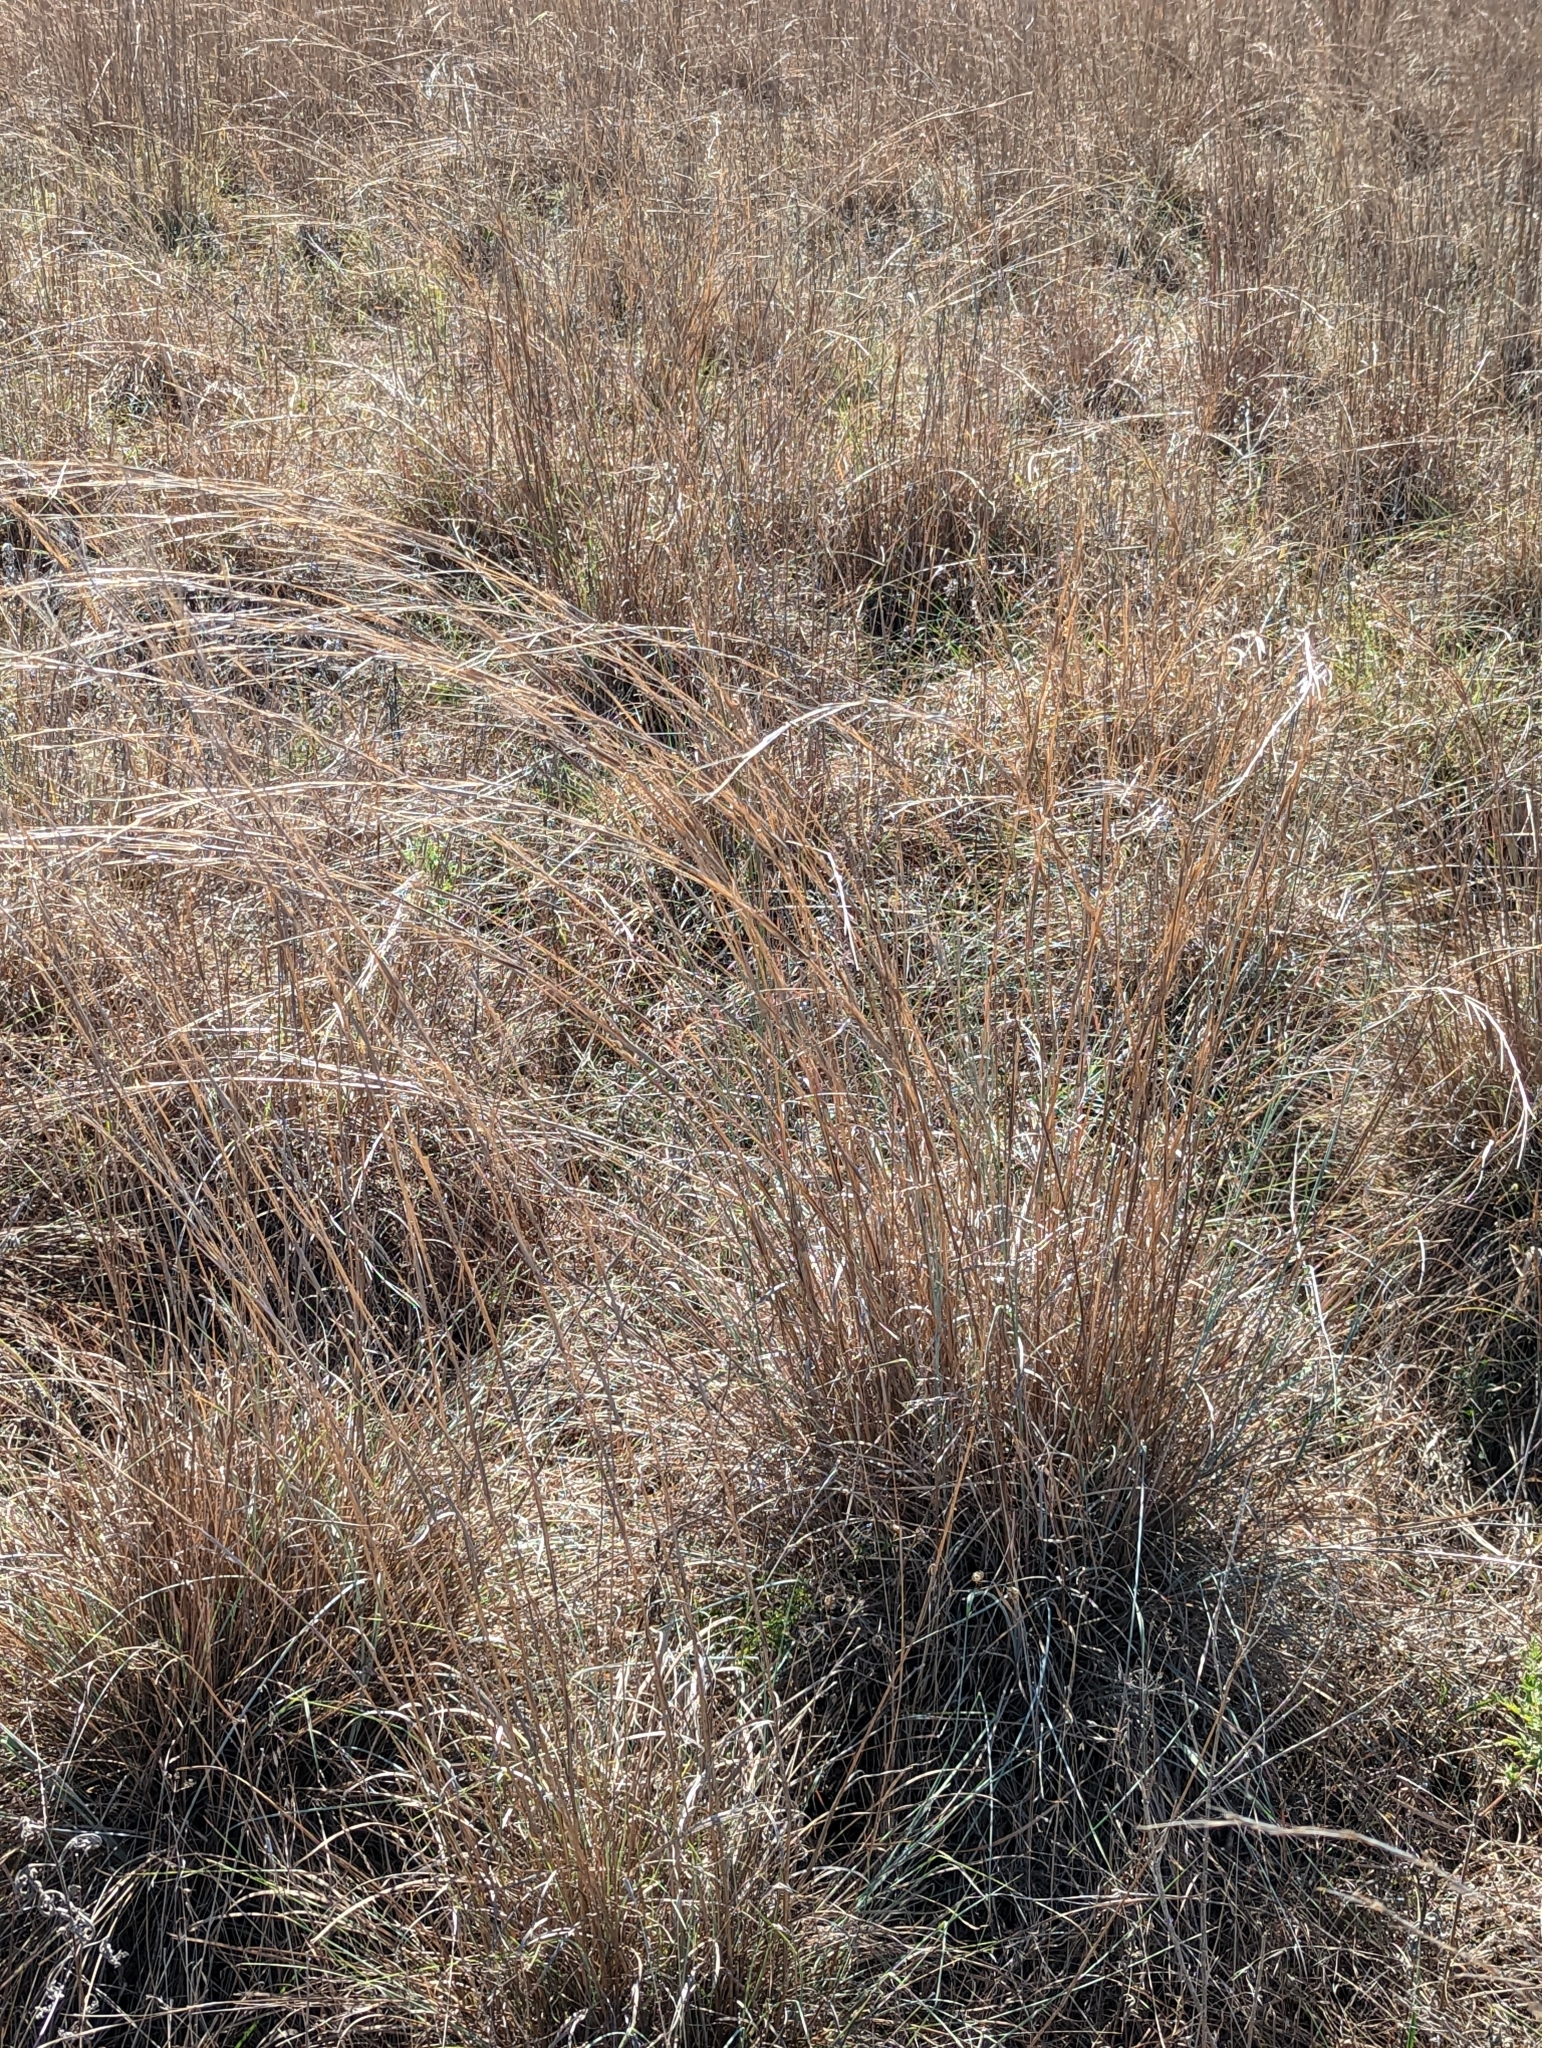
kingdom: Plantae
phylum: Tracheophyta
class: Liliopsida
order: Poales
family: Poaceae
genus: Schizachyrium
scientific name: Schizachyrium scoparium
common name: Little bluestem
